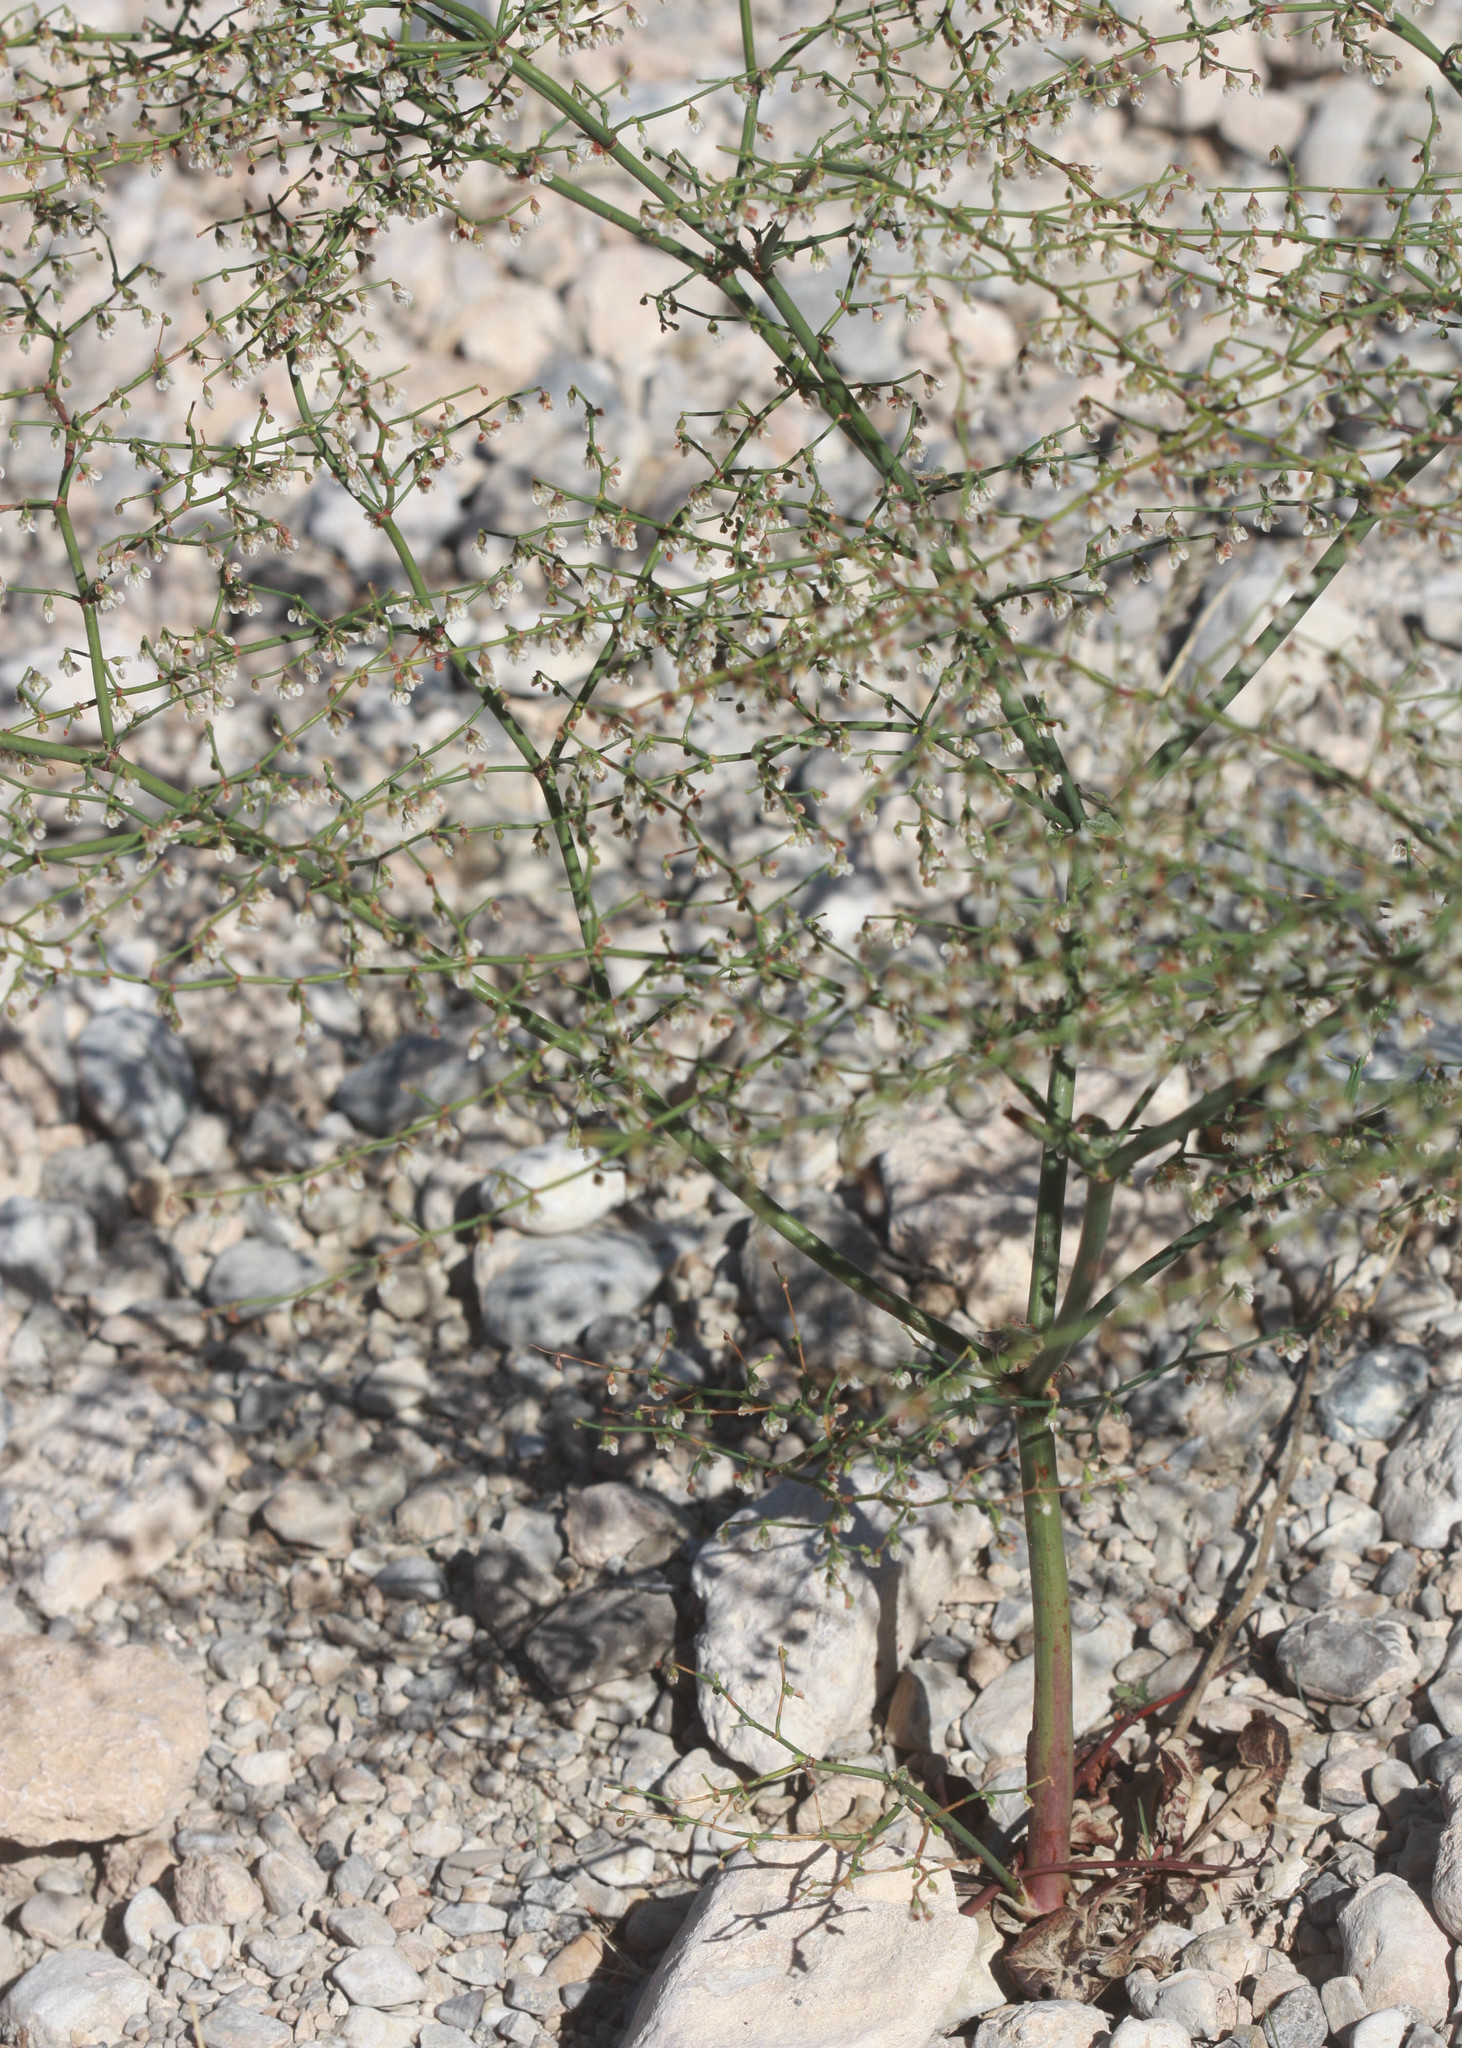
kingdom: Plantae
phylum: Tracheophyta
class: Magnoliopsida
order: Caryophyllales
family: Polygonaceae
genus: Eriogonum
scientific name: Eriogonum deflexum
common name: Skeleton-weed
